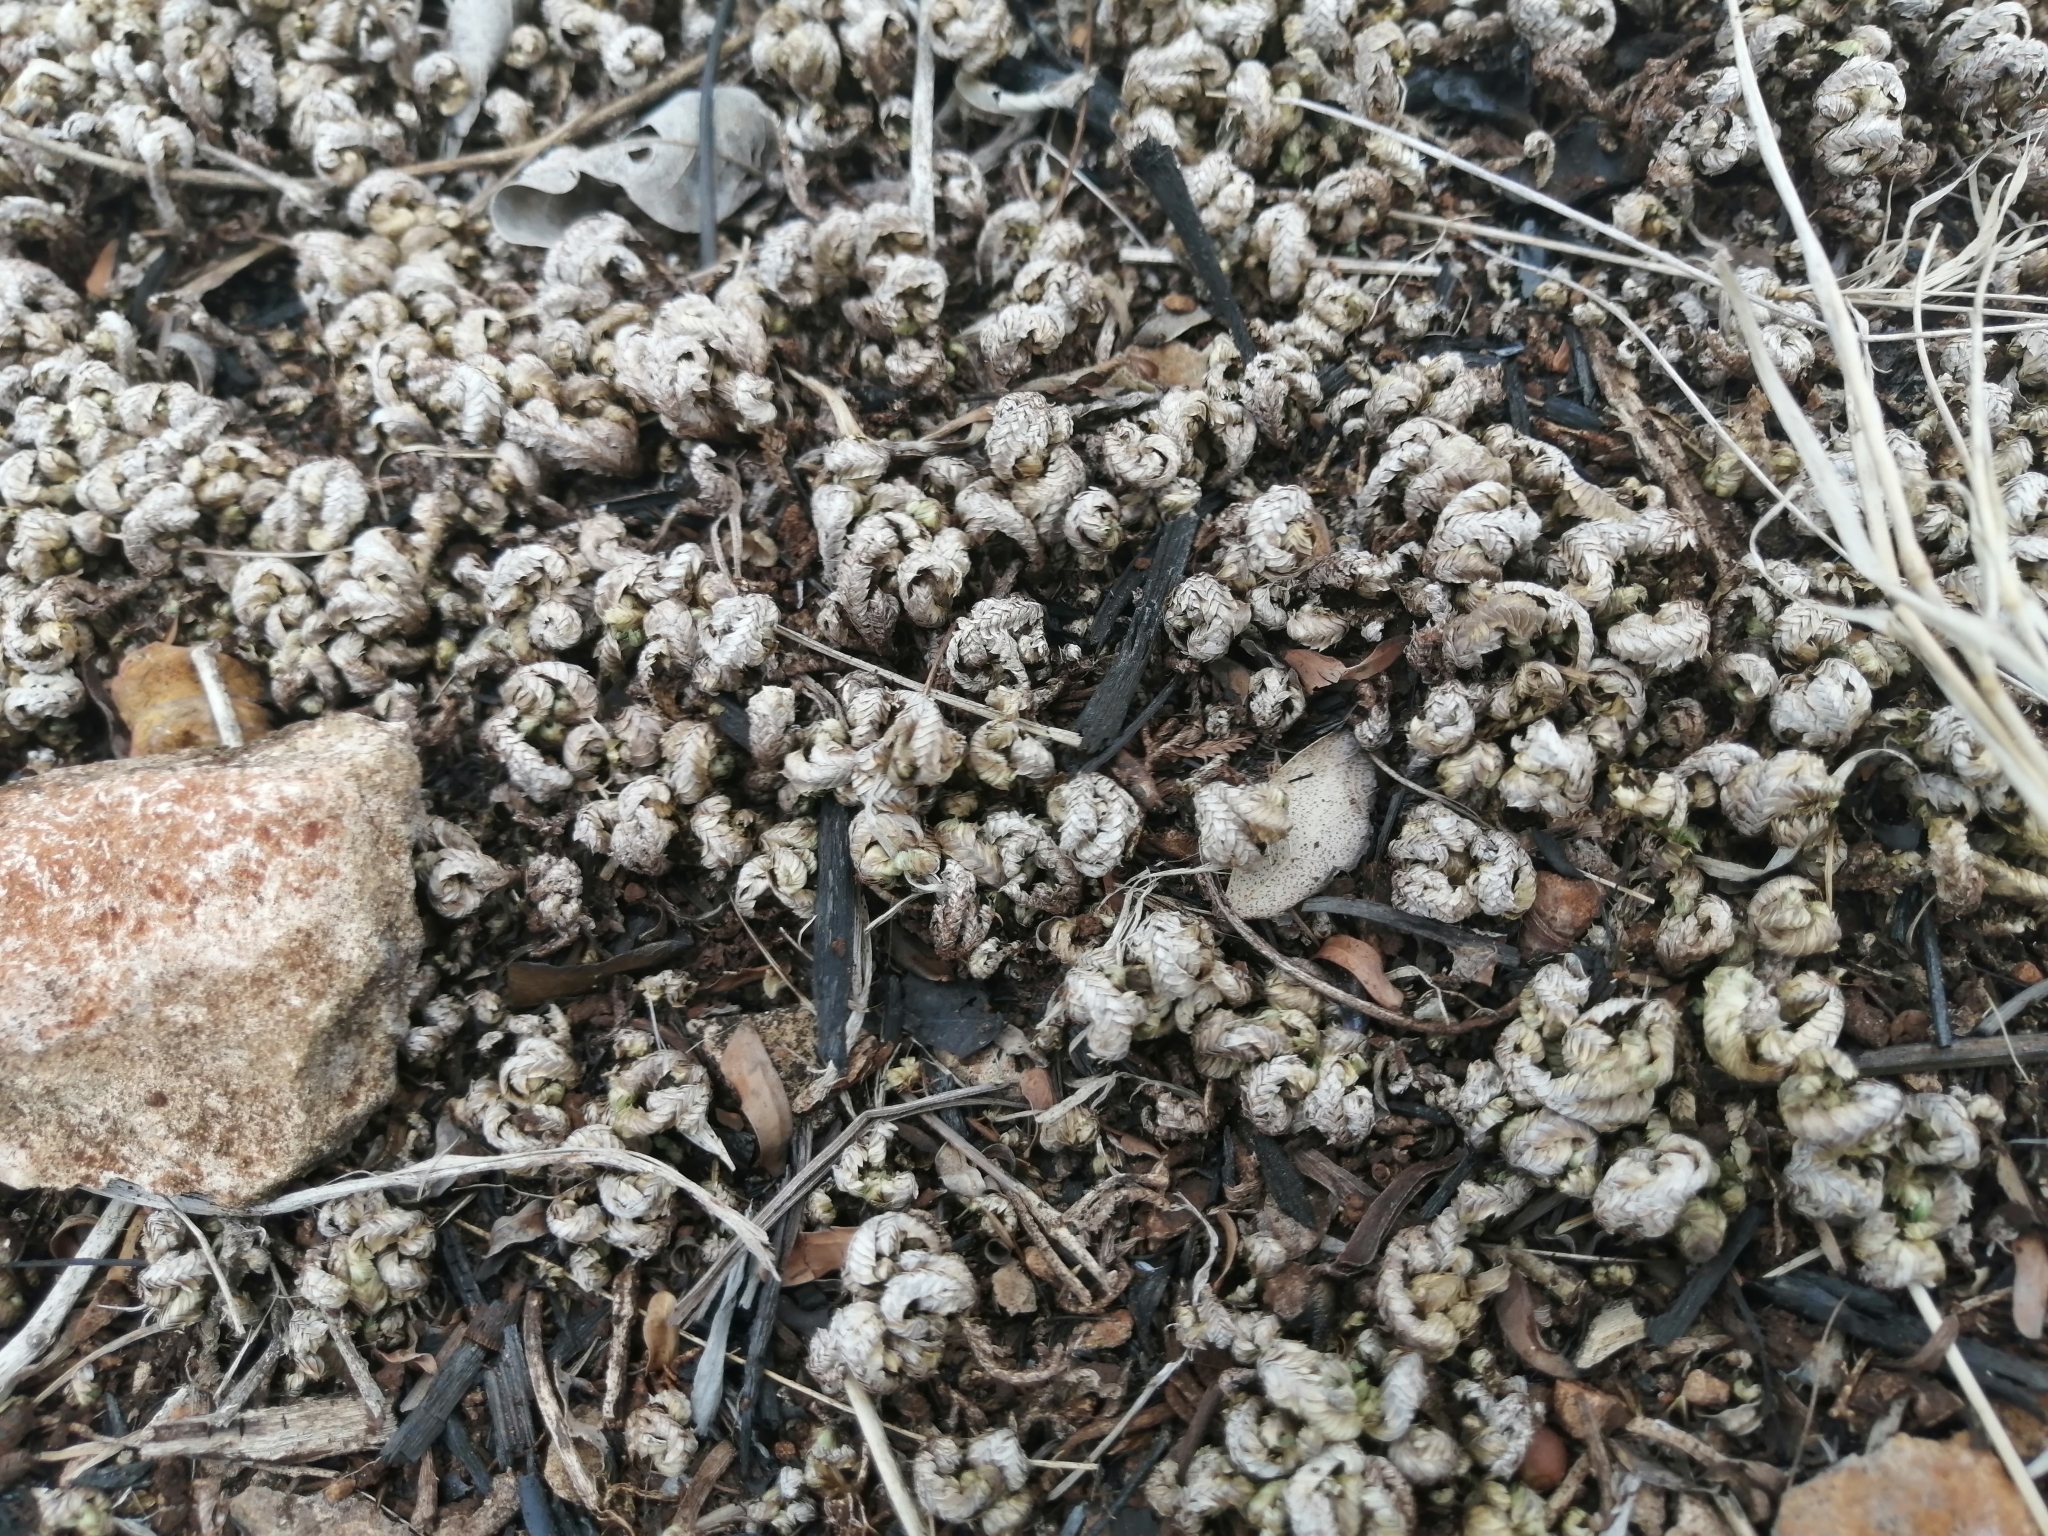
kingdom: Plantae
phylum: Tracheophyta
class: Lycopodiopsida
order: Selaginellales
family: Selaginellaceae
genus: Selaginella
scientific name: Selaginella convoluta
